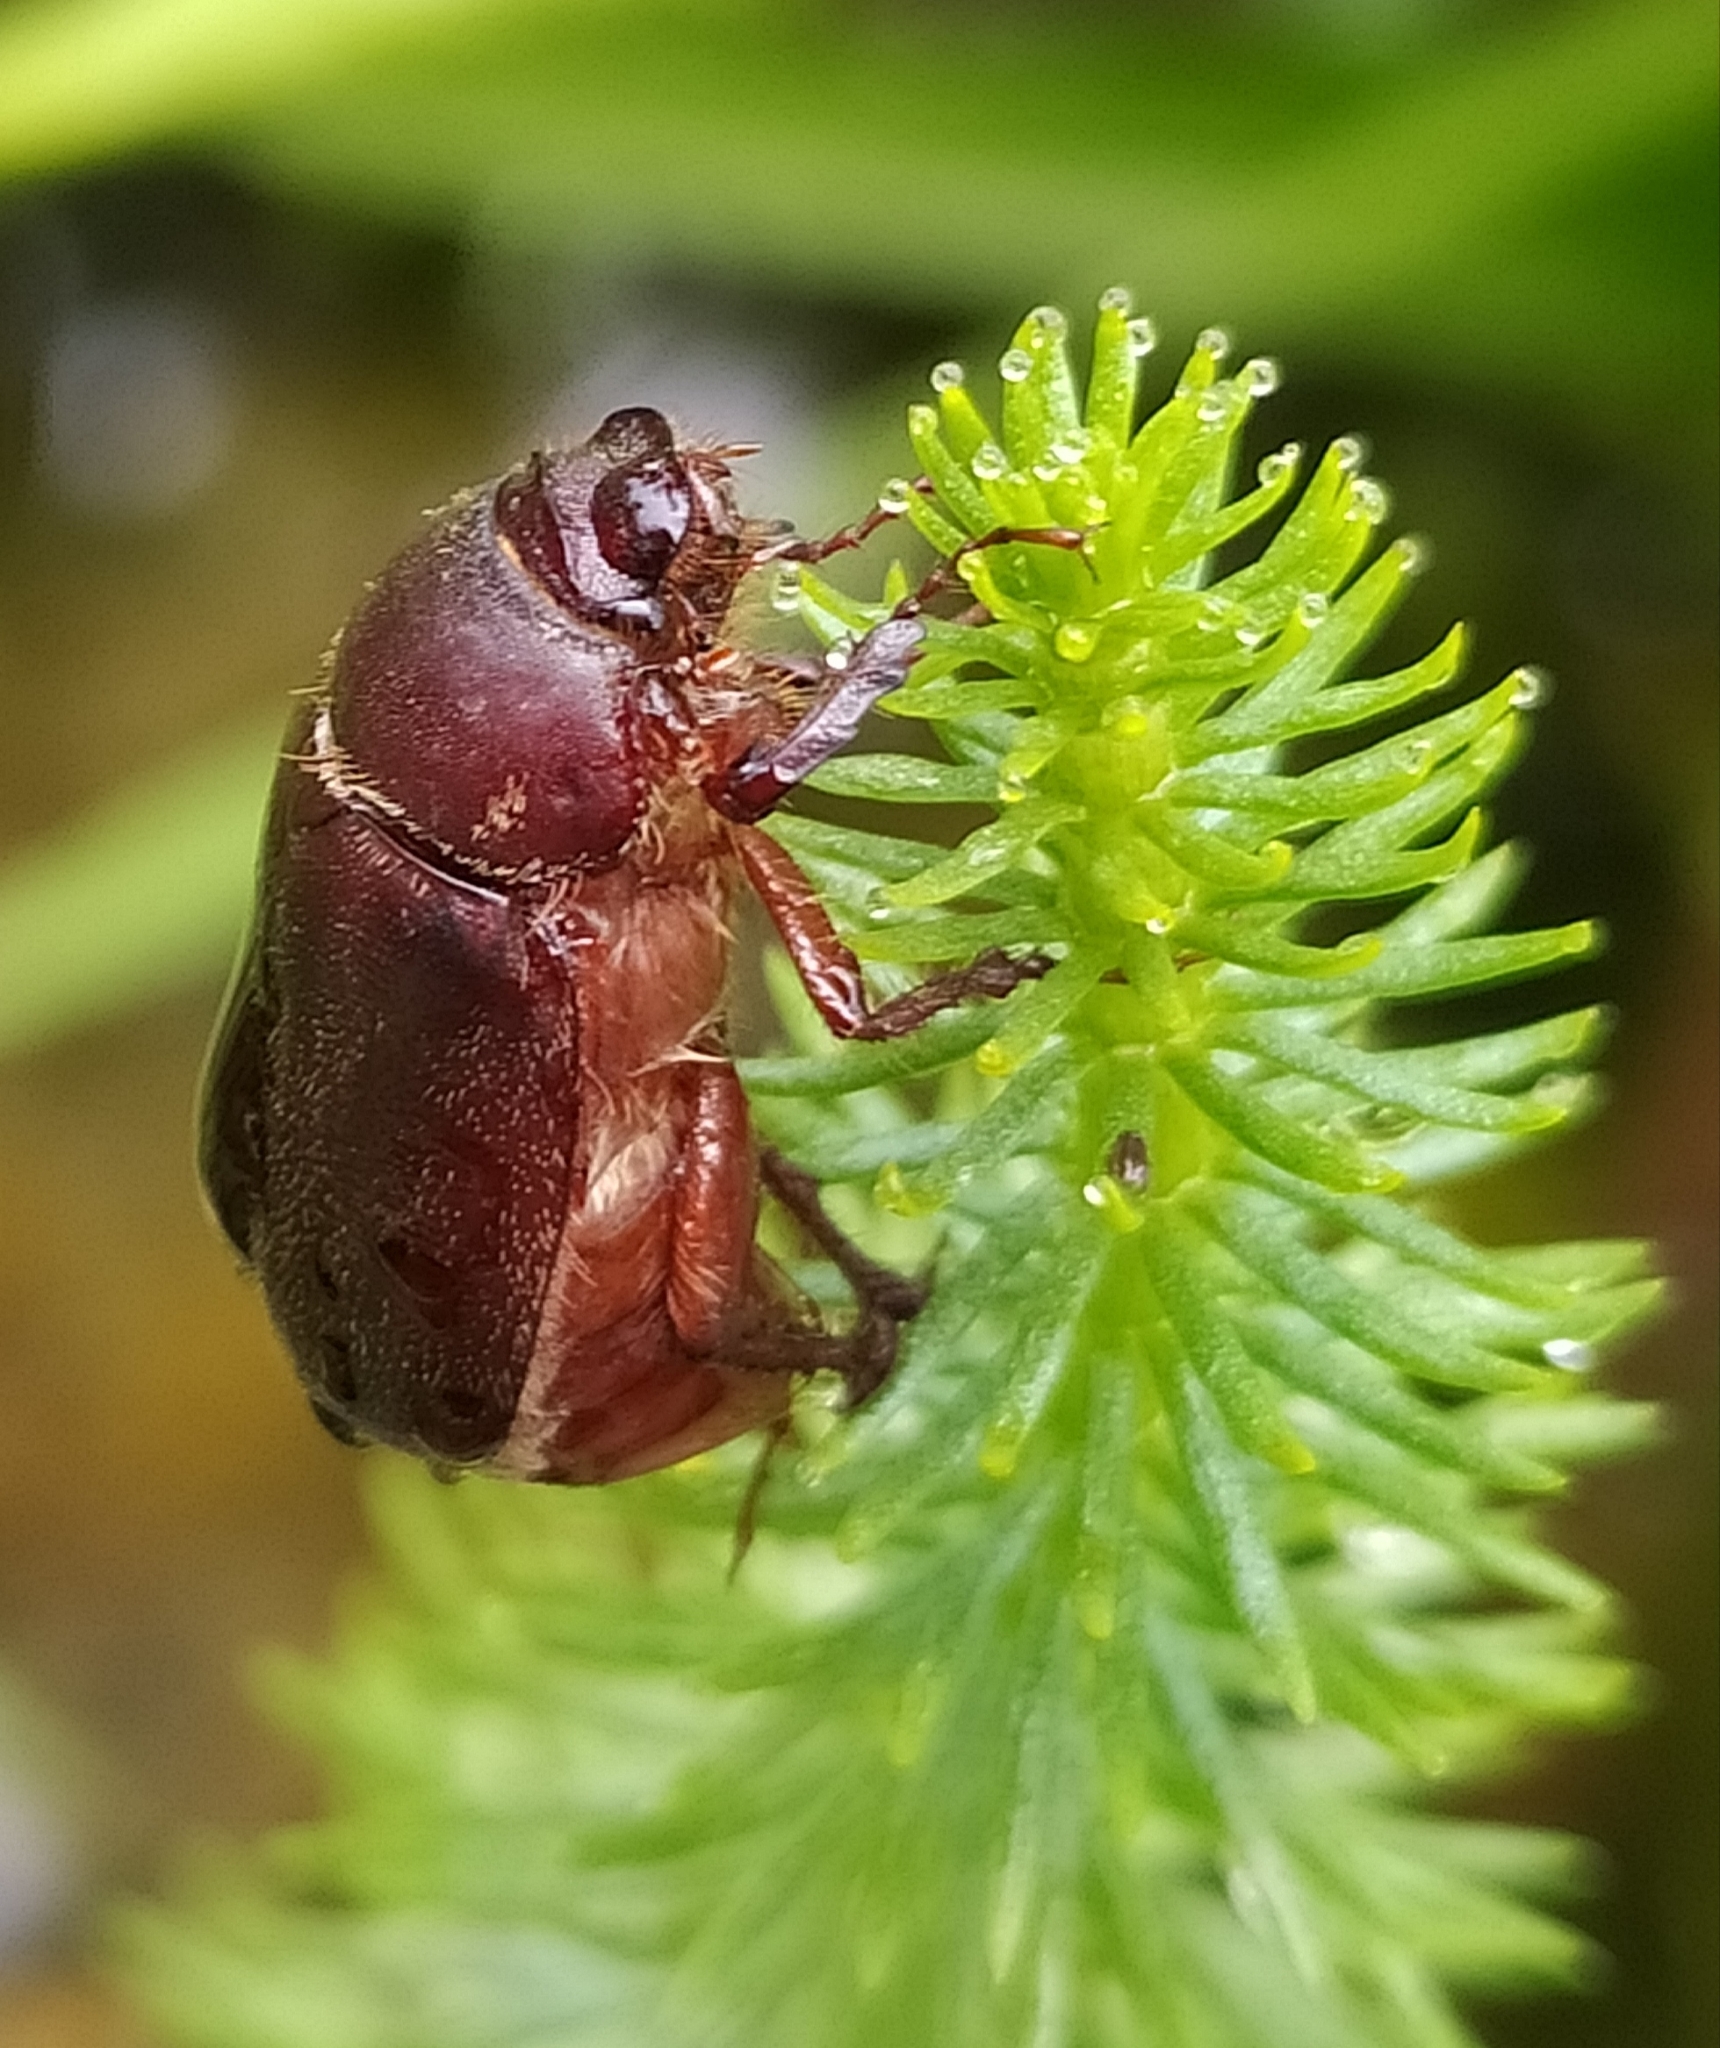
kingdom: Animalia
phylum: Arthropoda
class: Insecta
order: Coleoptera
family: Scarabaeidae
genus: Aplidia
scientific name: Aplidia transversa
